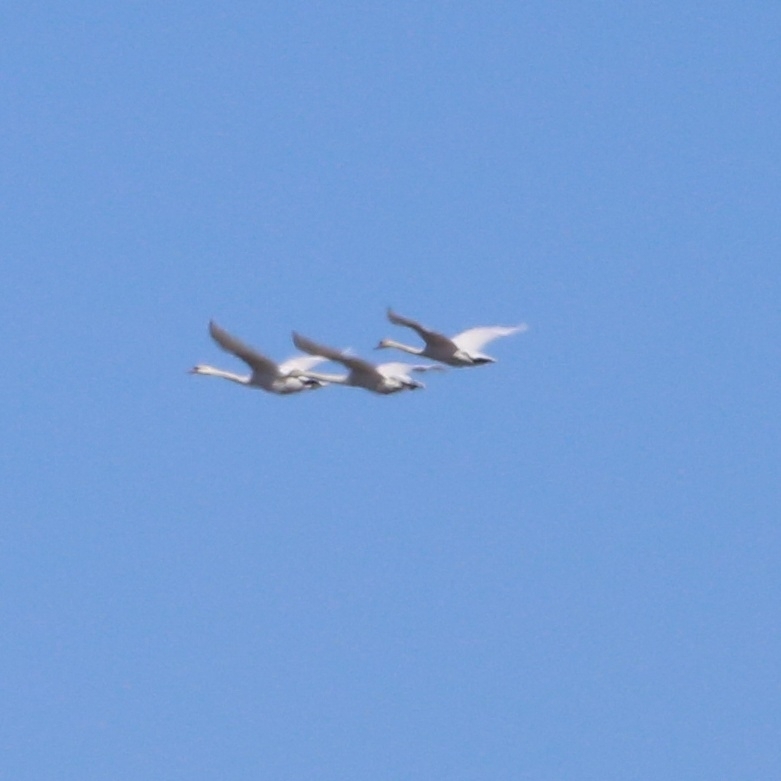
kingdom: Animalia
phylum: Chordata
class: Aves
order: Anseriformes
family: Anatidae
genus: Cygnus
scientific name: Cygnus olor
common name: Mute swan
